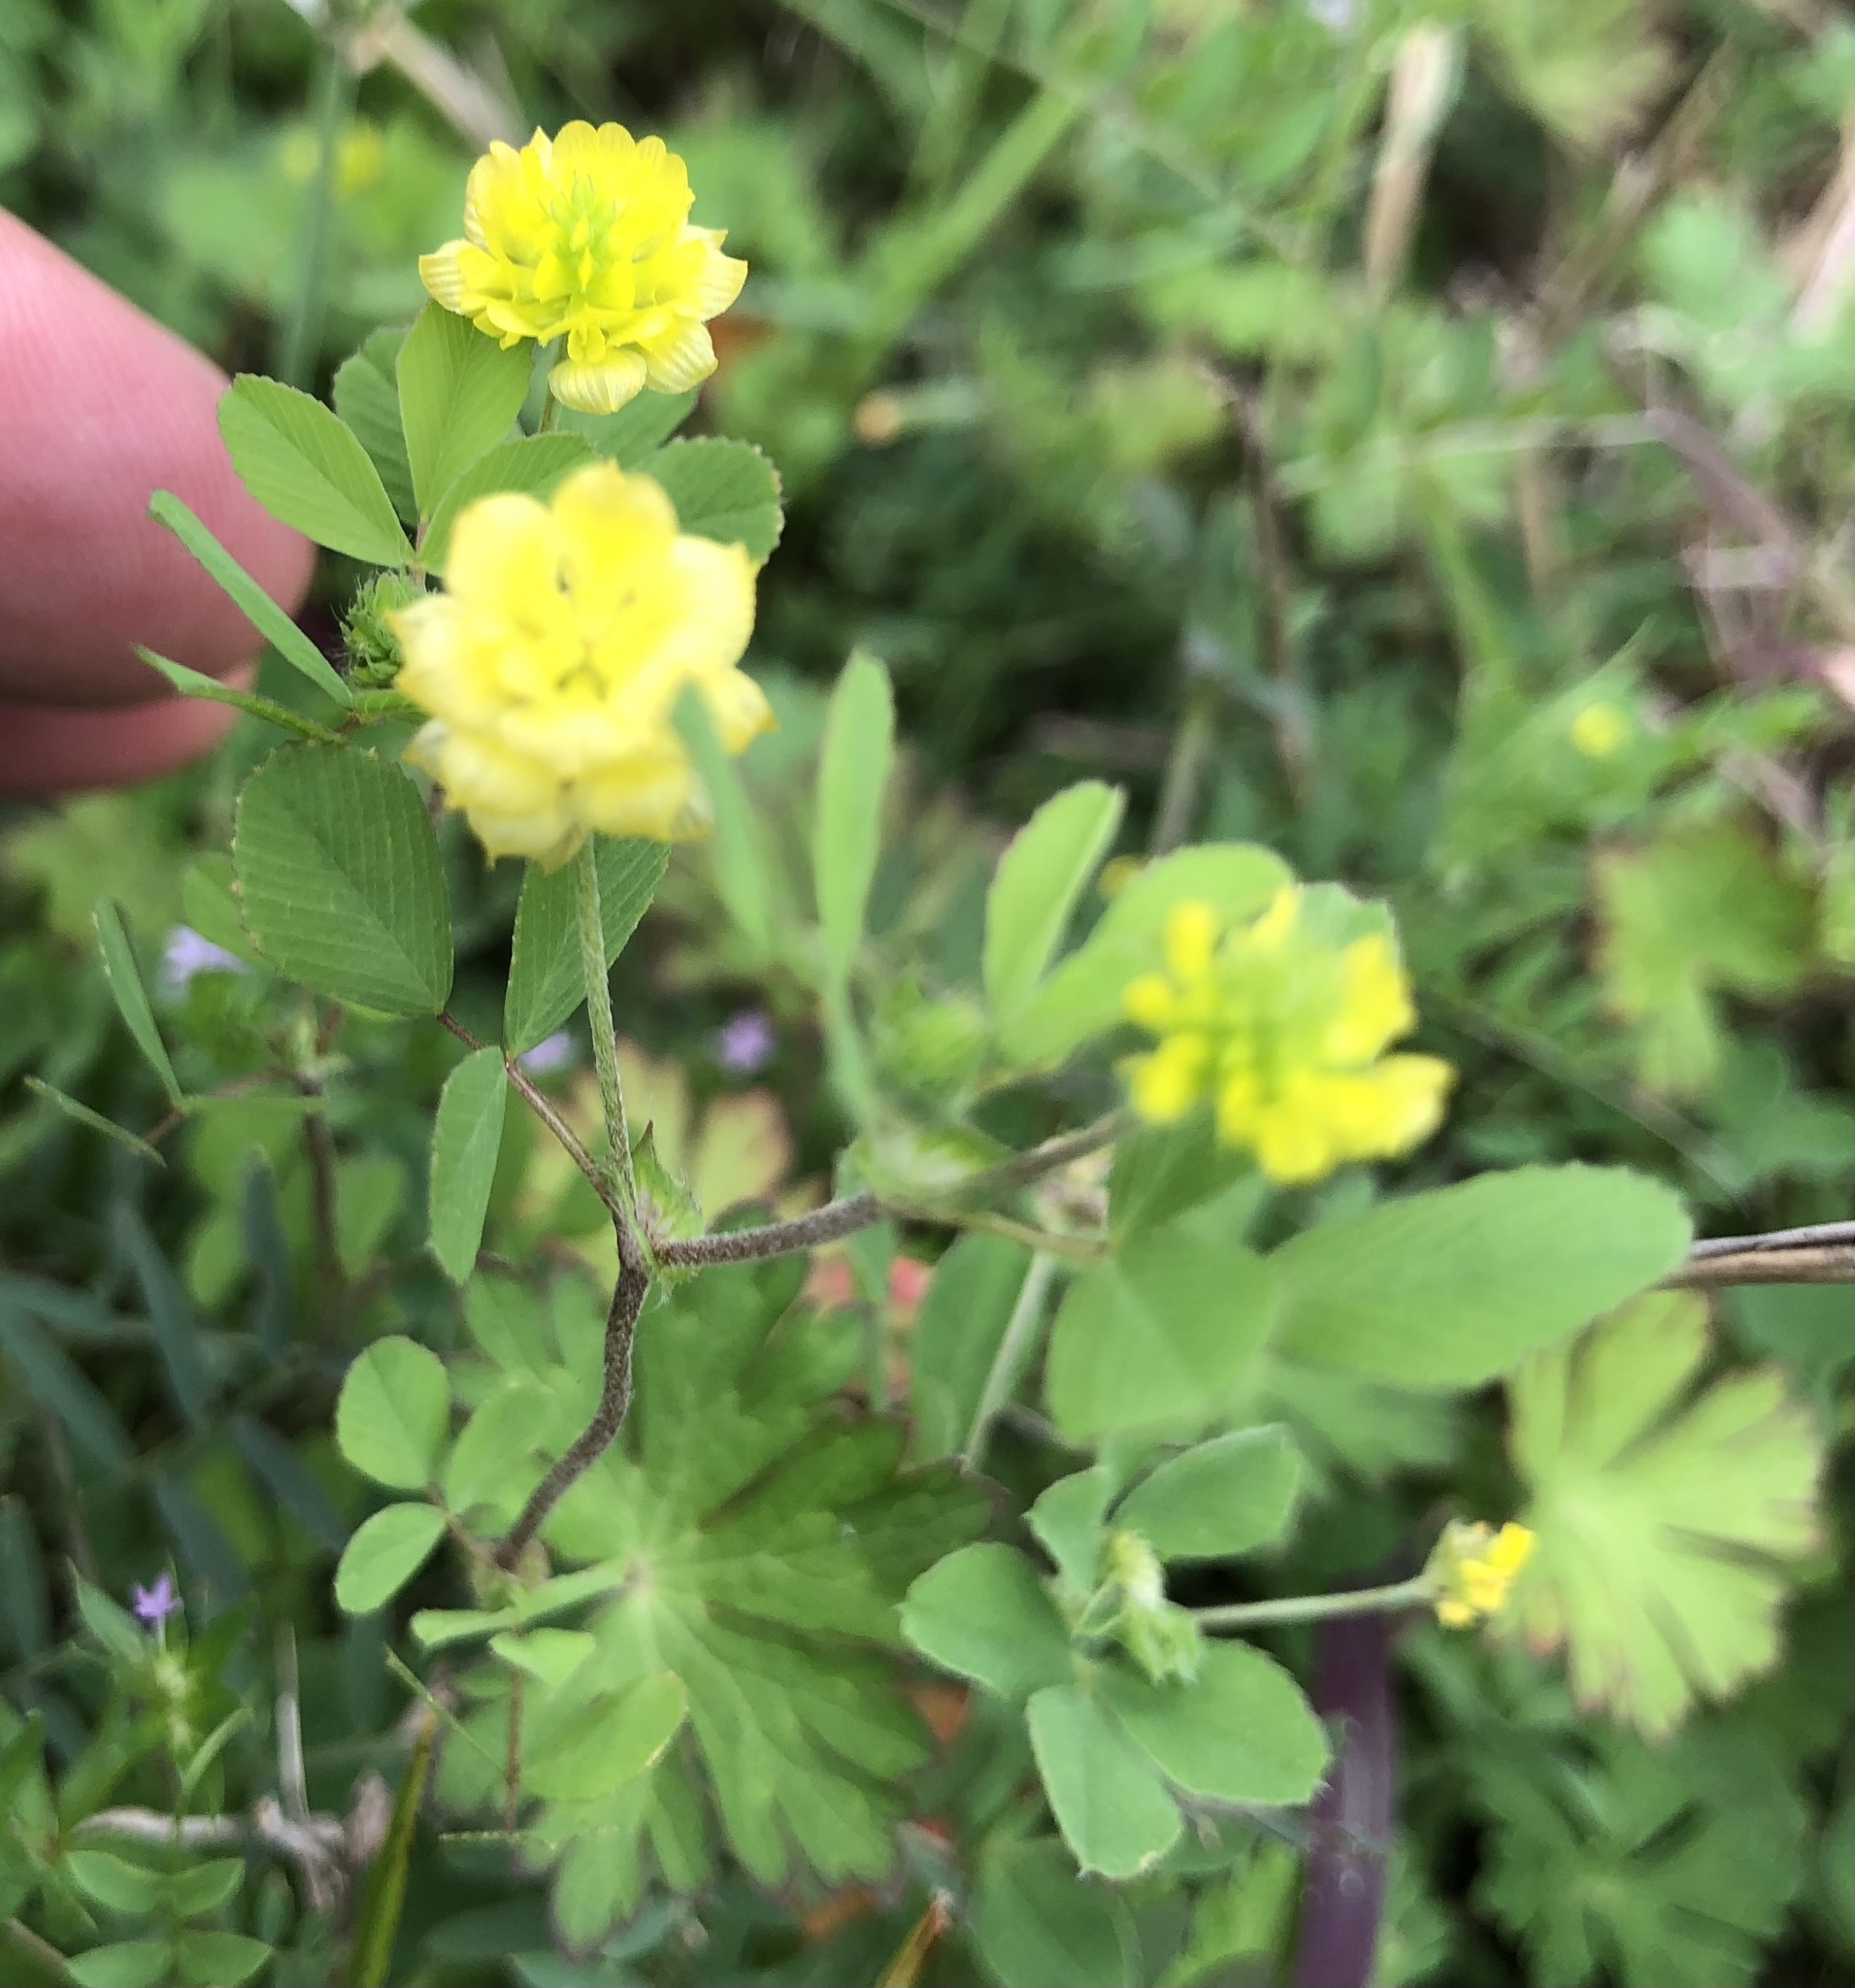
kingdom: Plantae
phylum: Tracheophyta
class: Magnoliopsida
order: Fabales
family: Fabaceae
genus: Trifolium
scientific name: Trifolium campestre
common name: Field clover
